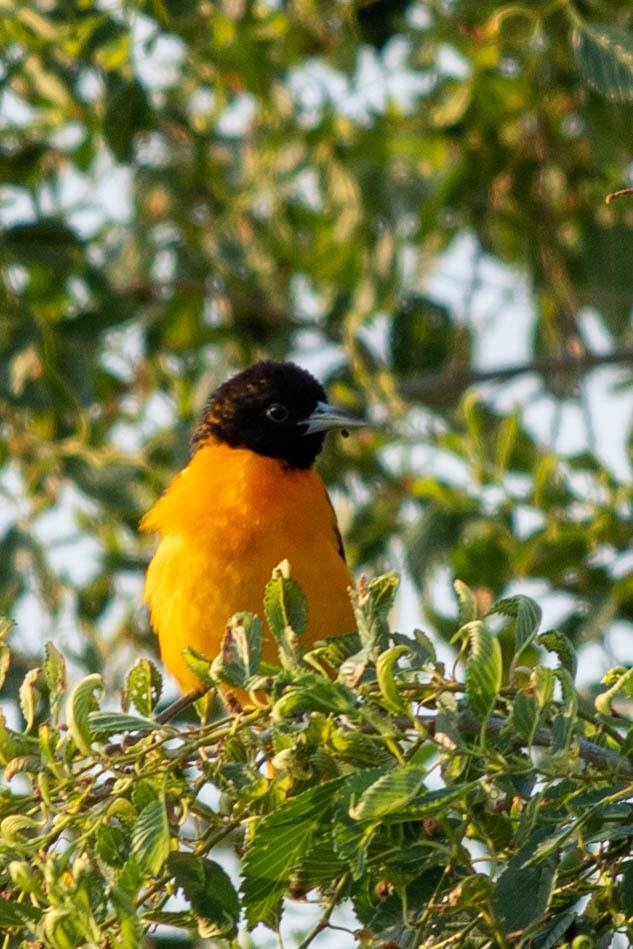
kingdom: Animalia
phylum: Chordata
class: Aves
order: Passeriformes
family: Icteridae
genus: Icterus
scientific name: Icterus galbula
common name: Baltimore oriole
